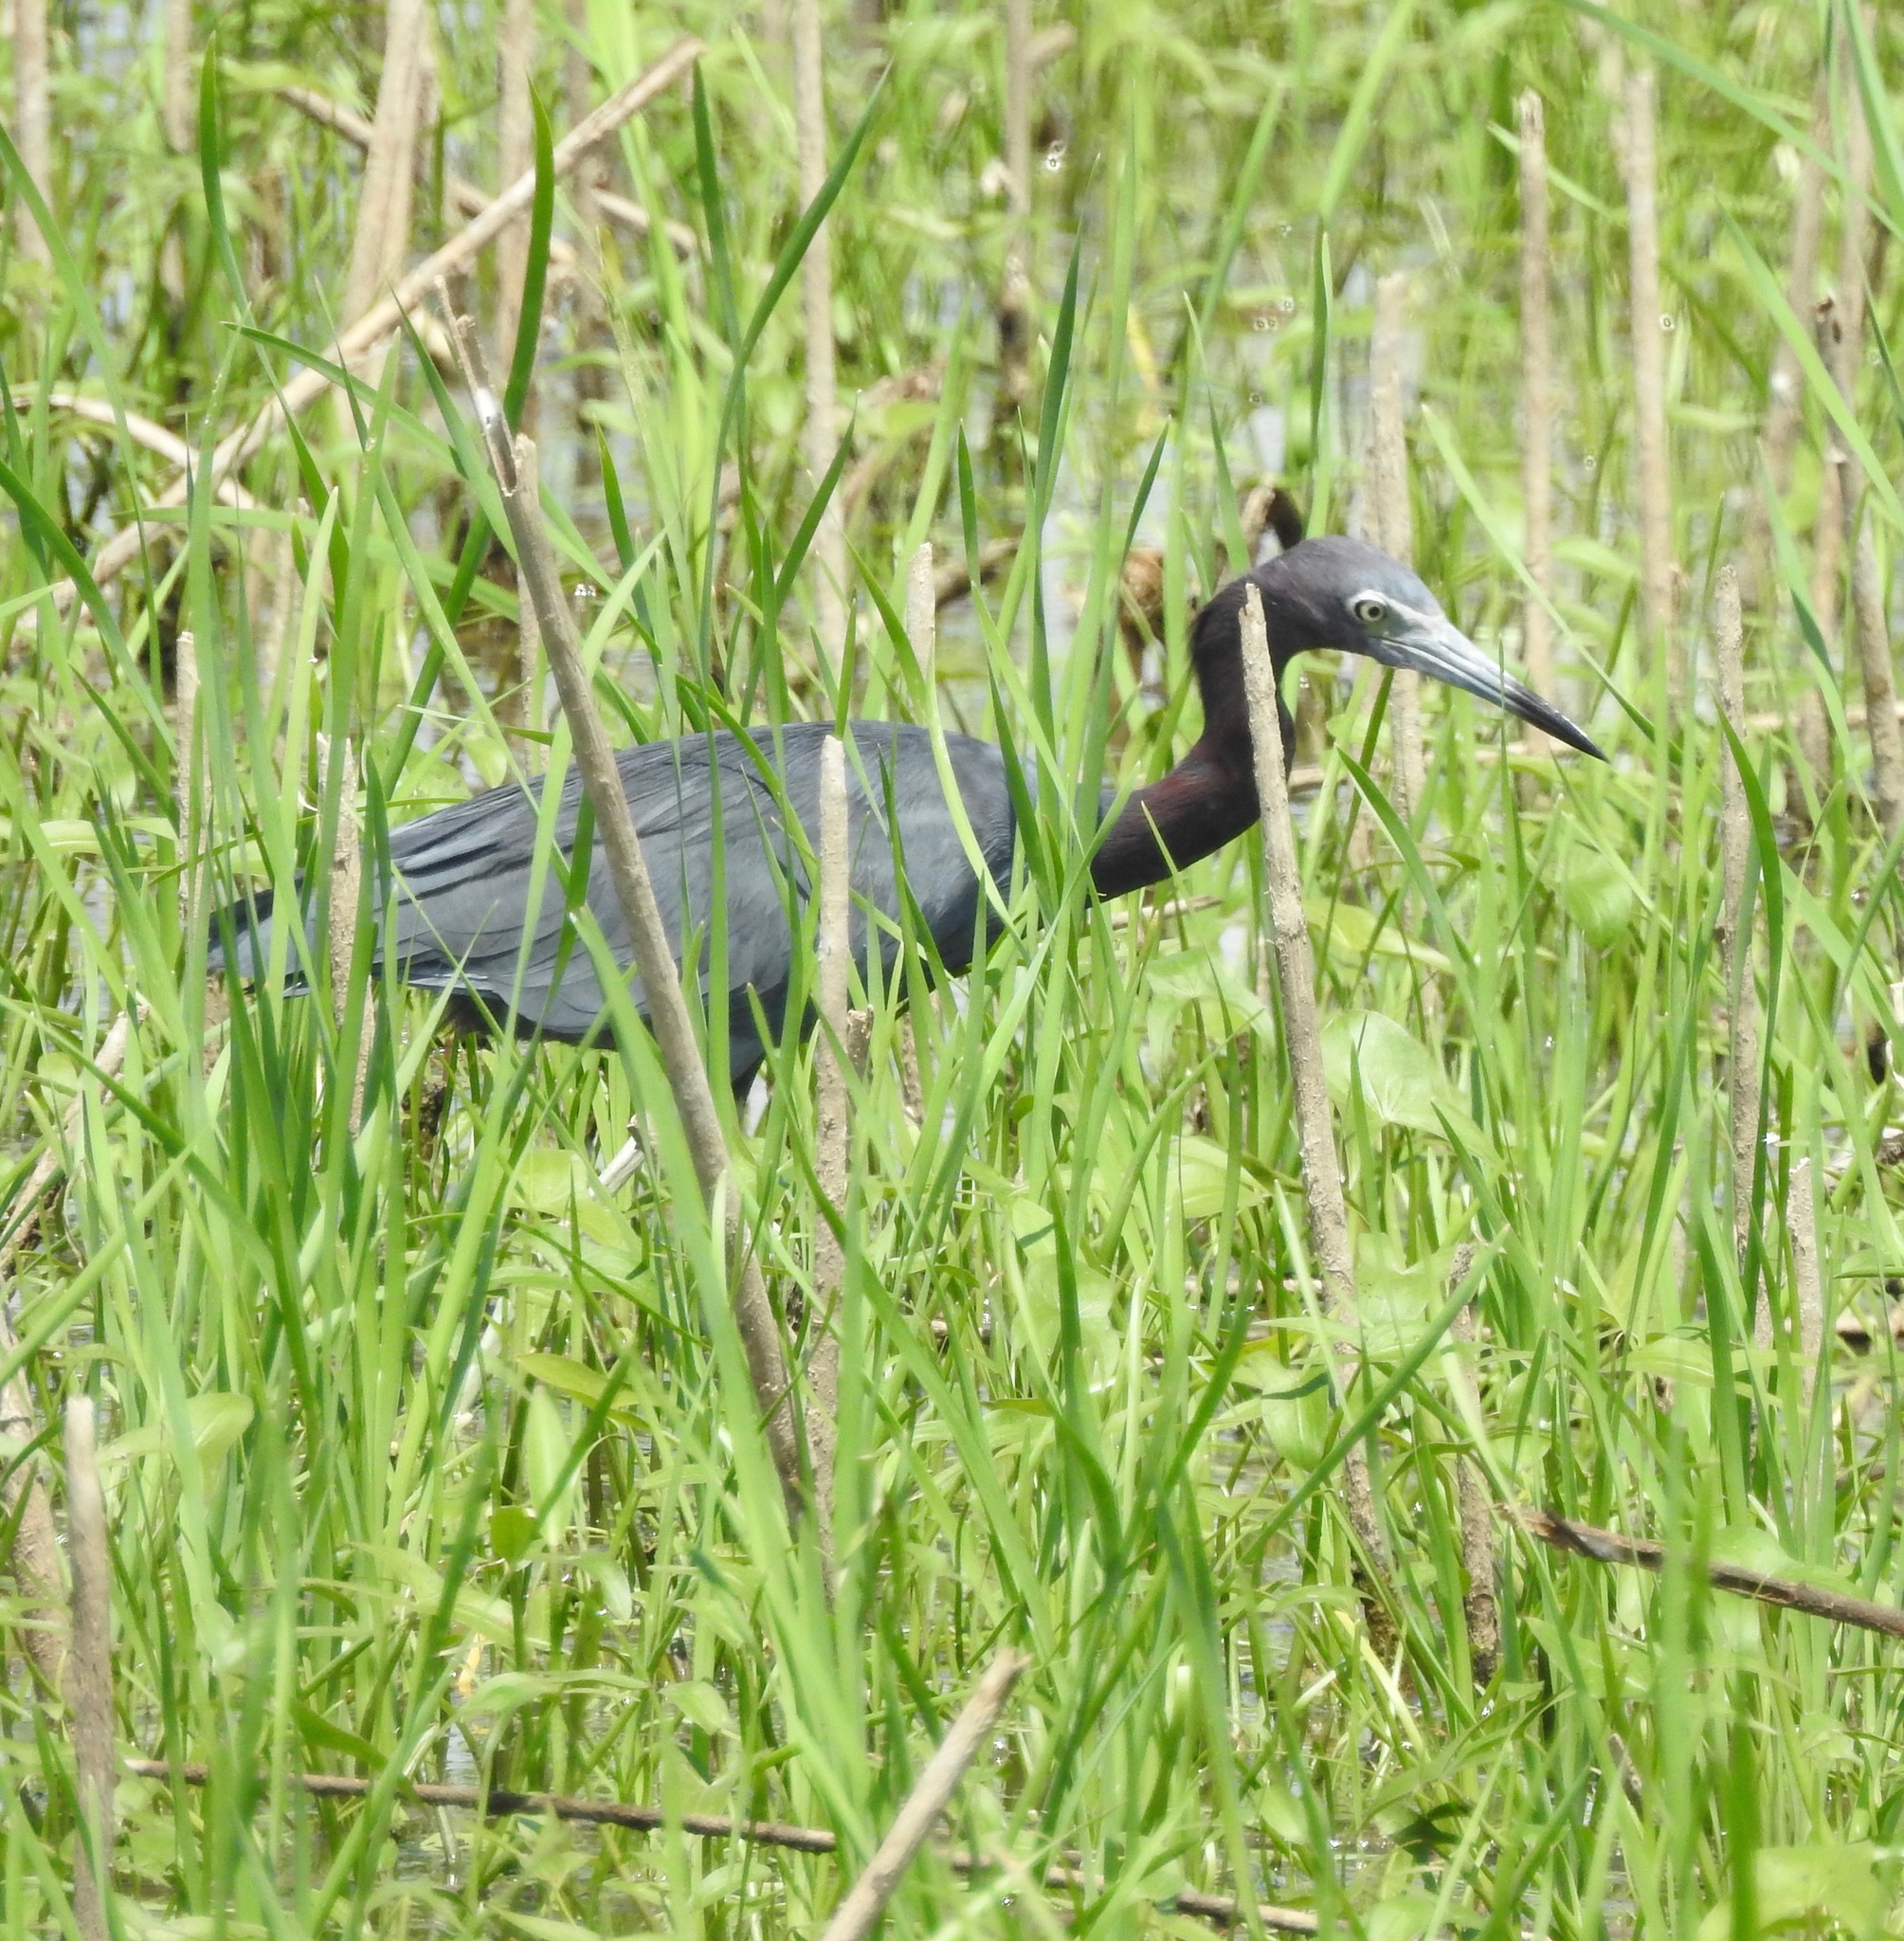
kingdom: Animalia
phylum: Chordata
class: Aves
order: Pelecaniformes
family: Ardeidae
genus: Egretta
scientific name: Egretta caerulea
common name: Little blue heron
